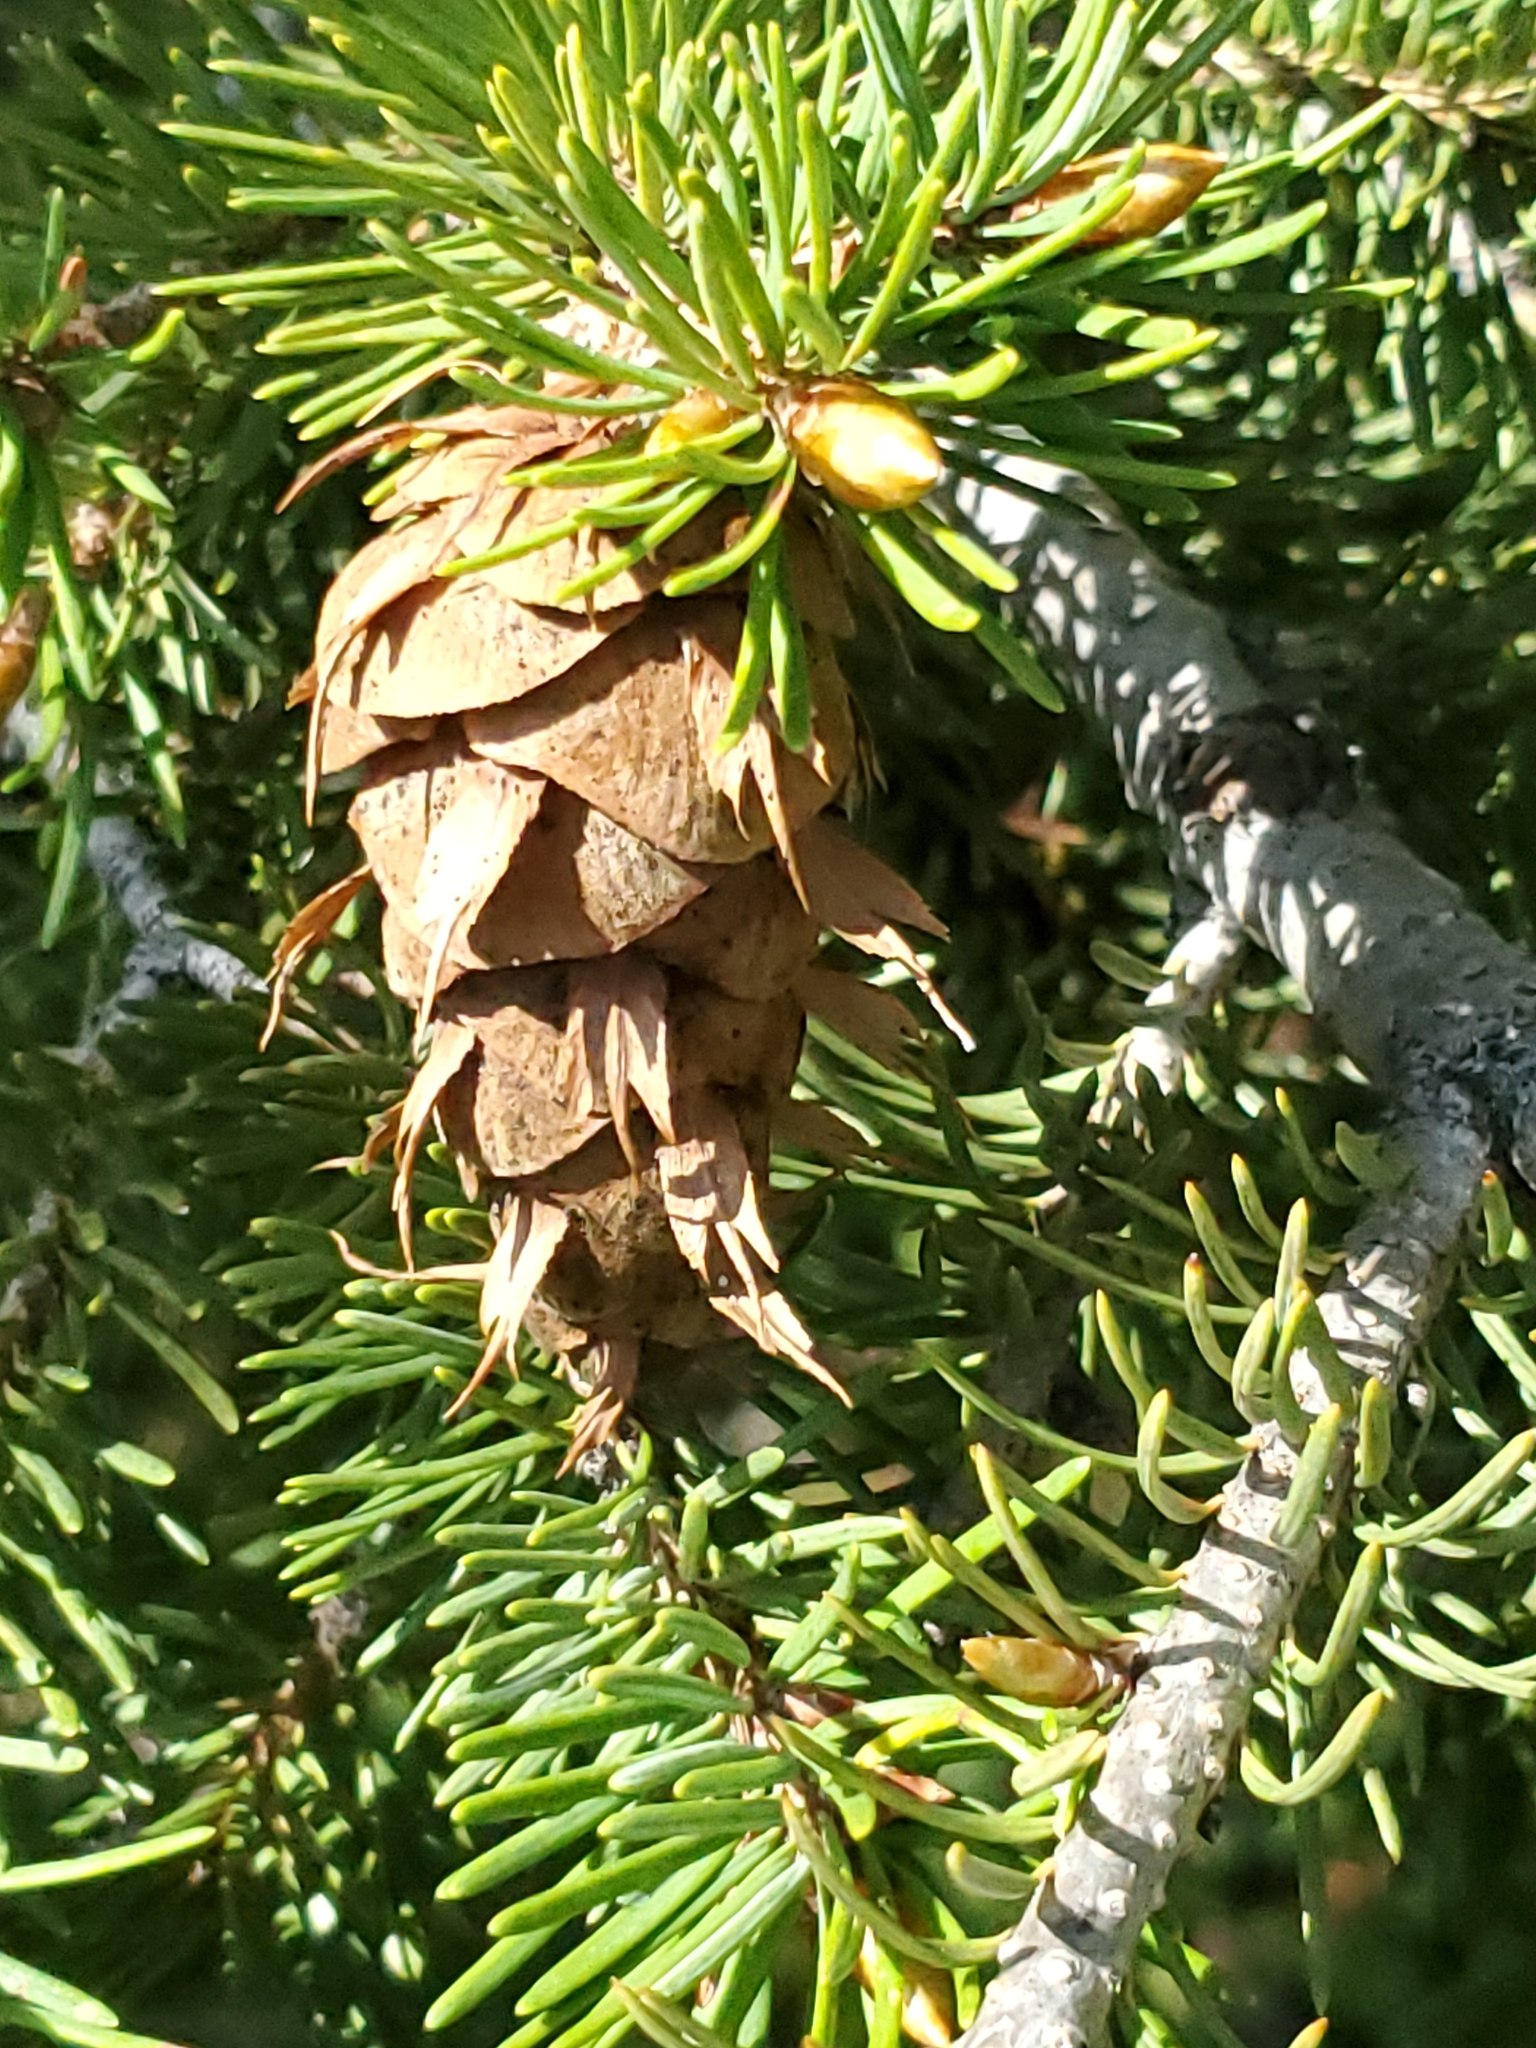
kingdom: Plantae
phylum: Tracheophyta
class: Pinopsida
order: Pinales
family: Pinaceae
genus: Pseudotsuga
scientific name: Pseudotsuga menziesii
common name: Douglas fir
